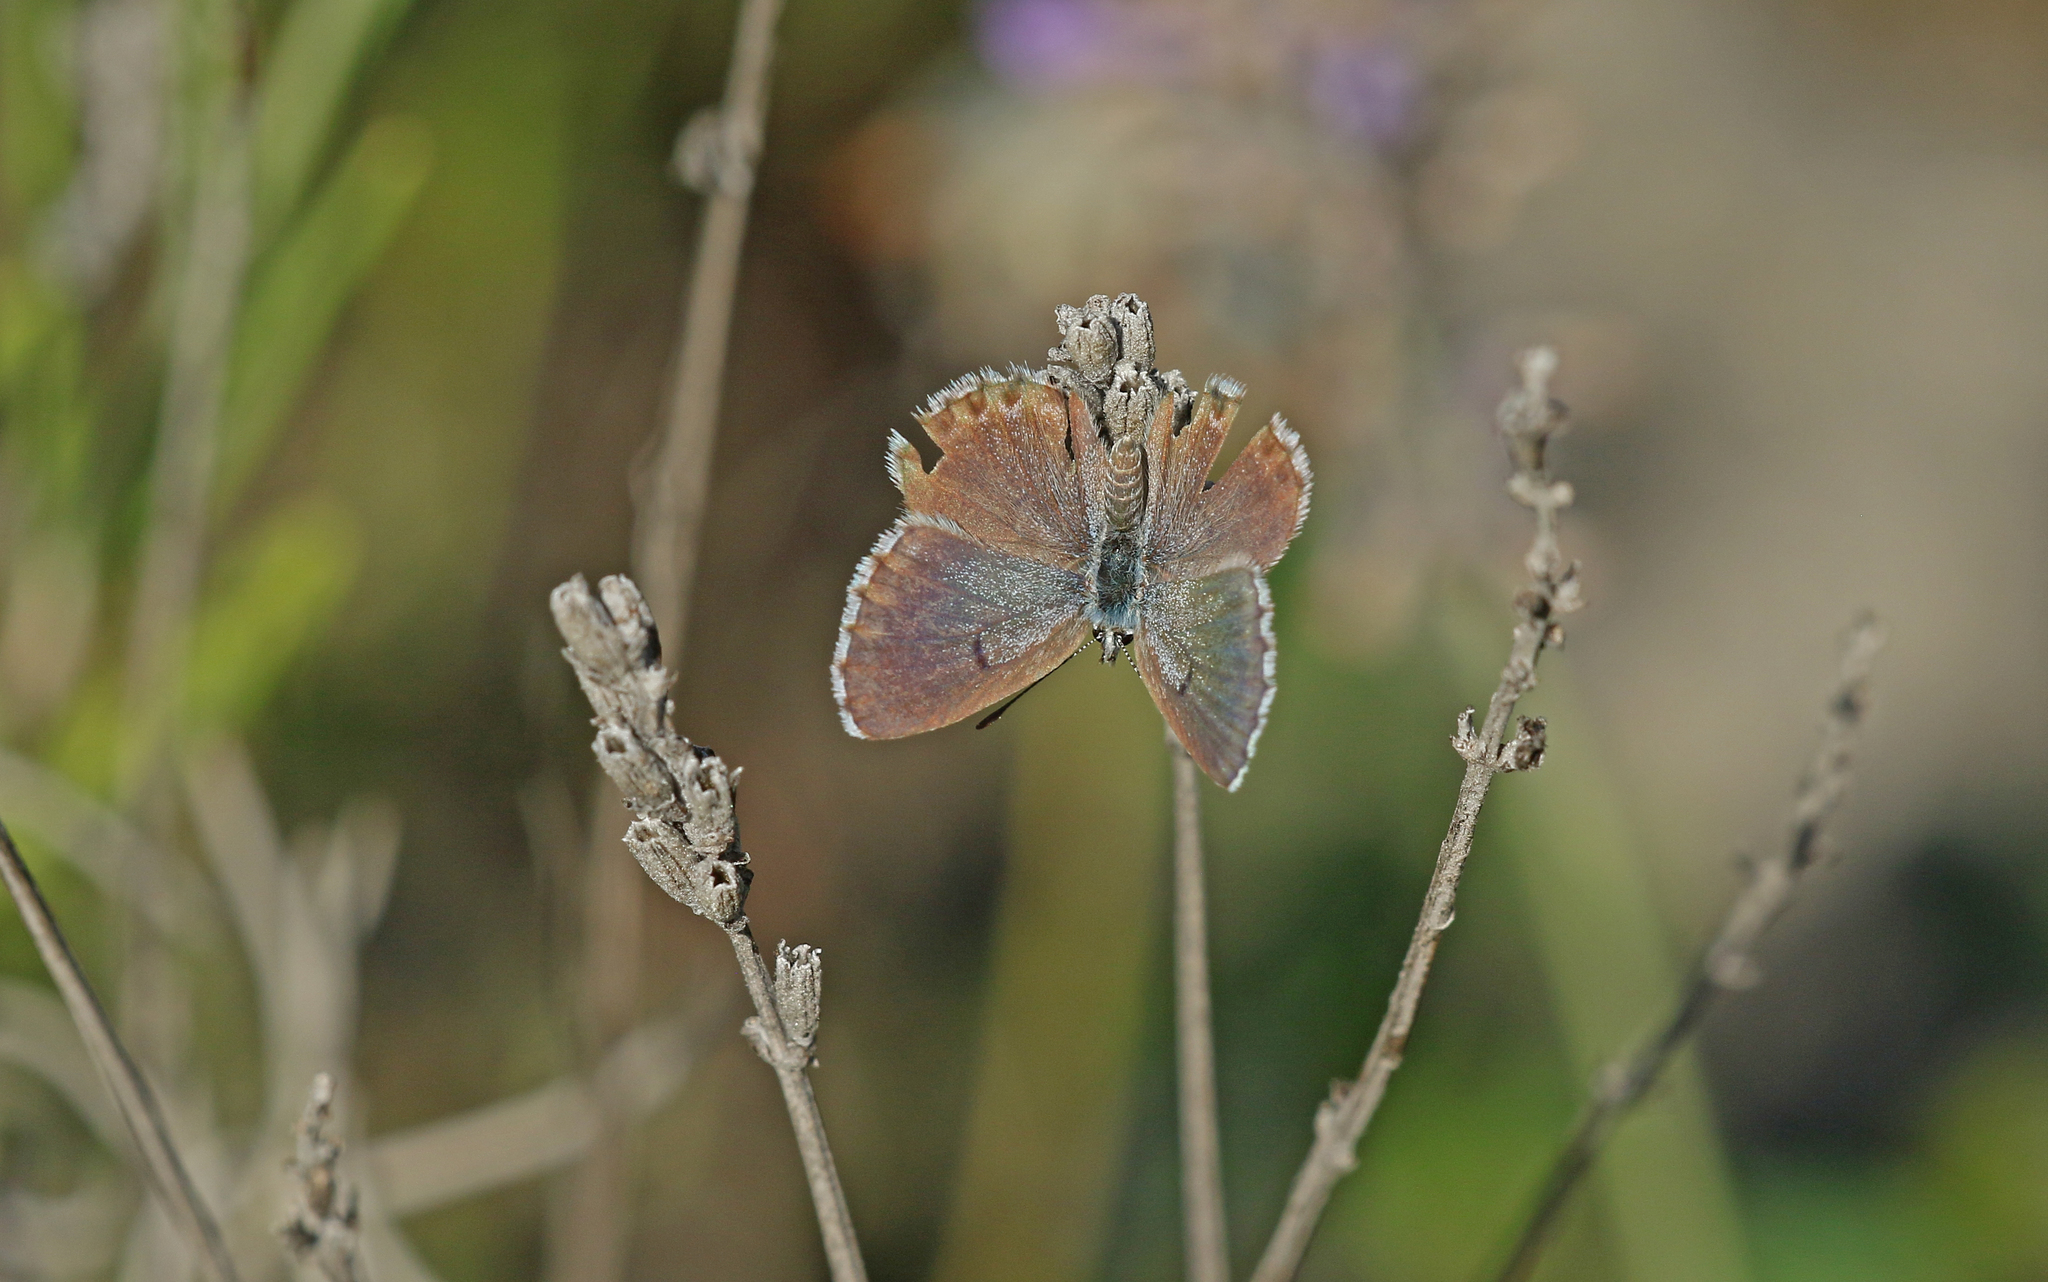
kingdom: Animalia
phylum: Arthropoda
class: Insecta
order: Lepidoptera
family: Lycaenidae
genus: Pseudophilotes
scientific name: Pseudophilotes baton
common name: Baton blue
